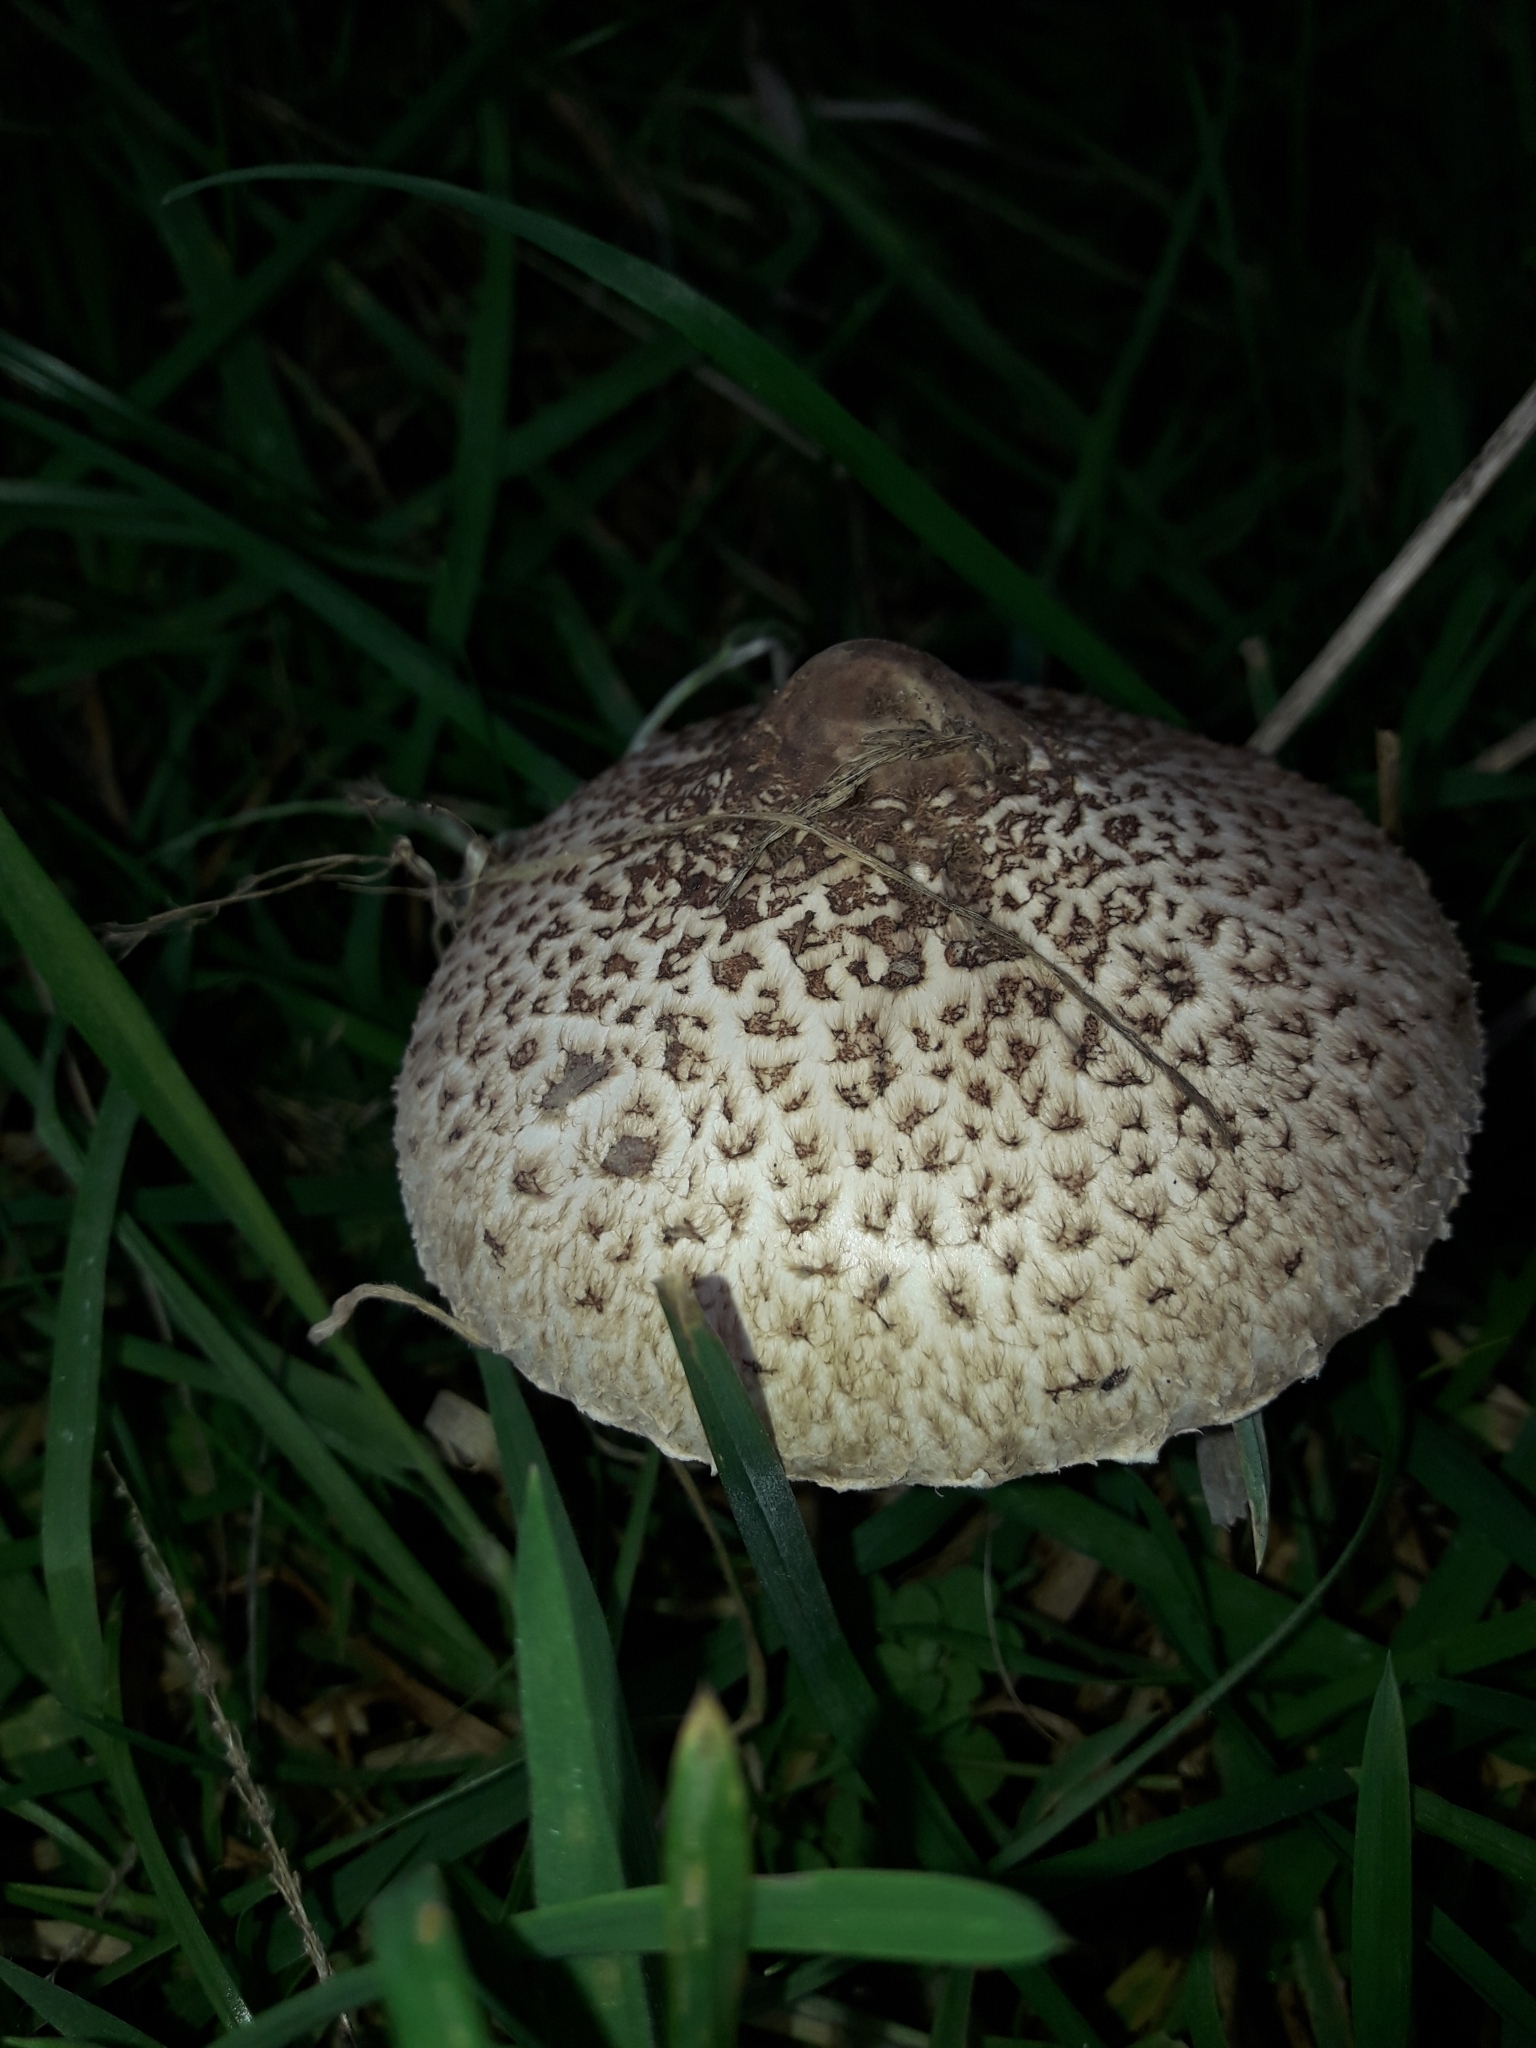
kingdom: Fungi
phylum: Basidiomycota
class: Agaricomycetes
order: Agaricales
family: Agaricaceae
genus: Macrolepiota
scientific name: Macrolepiota clelandii
